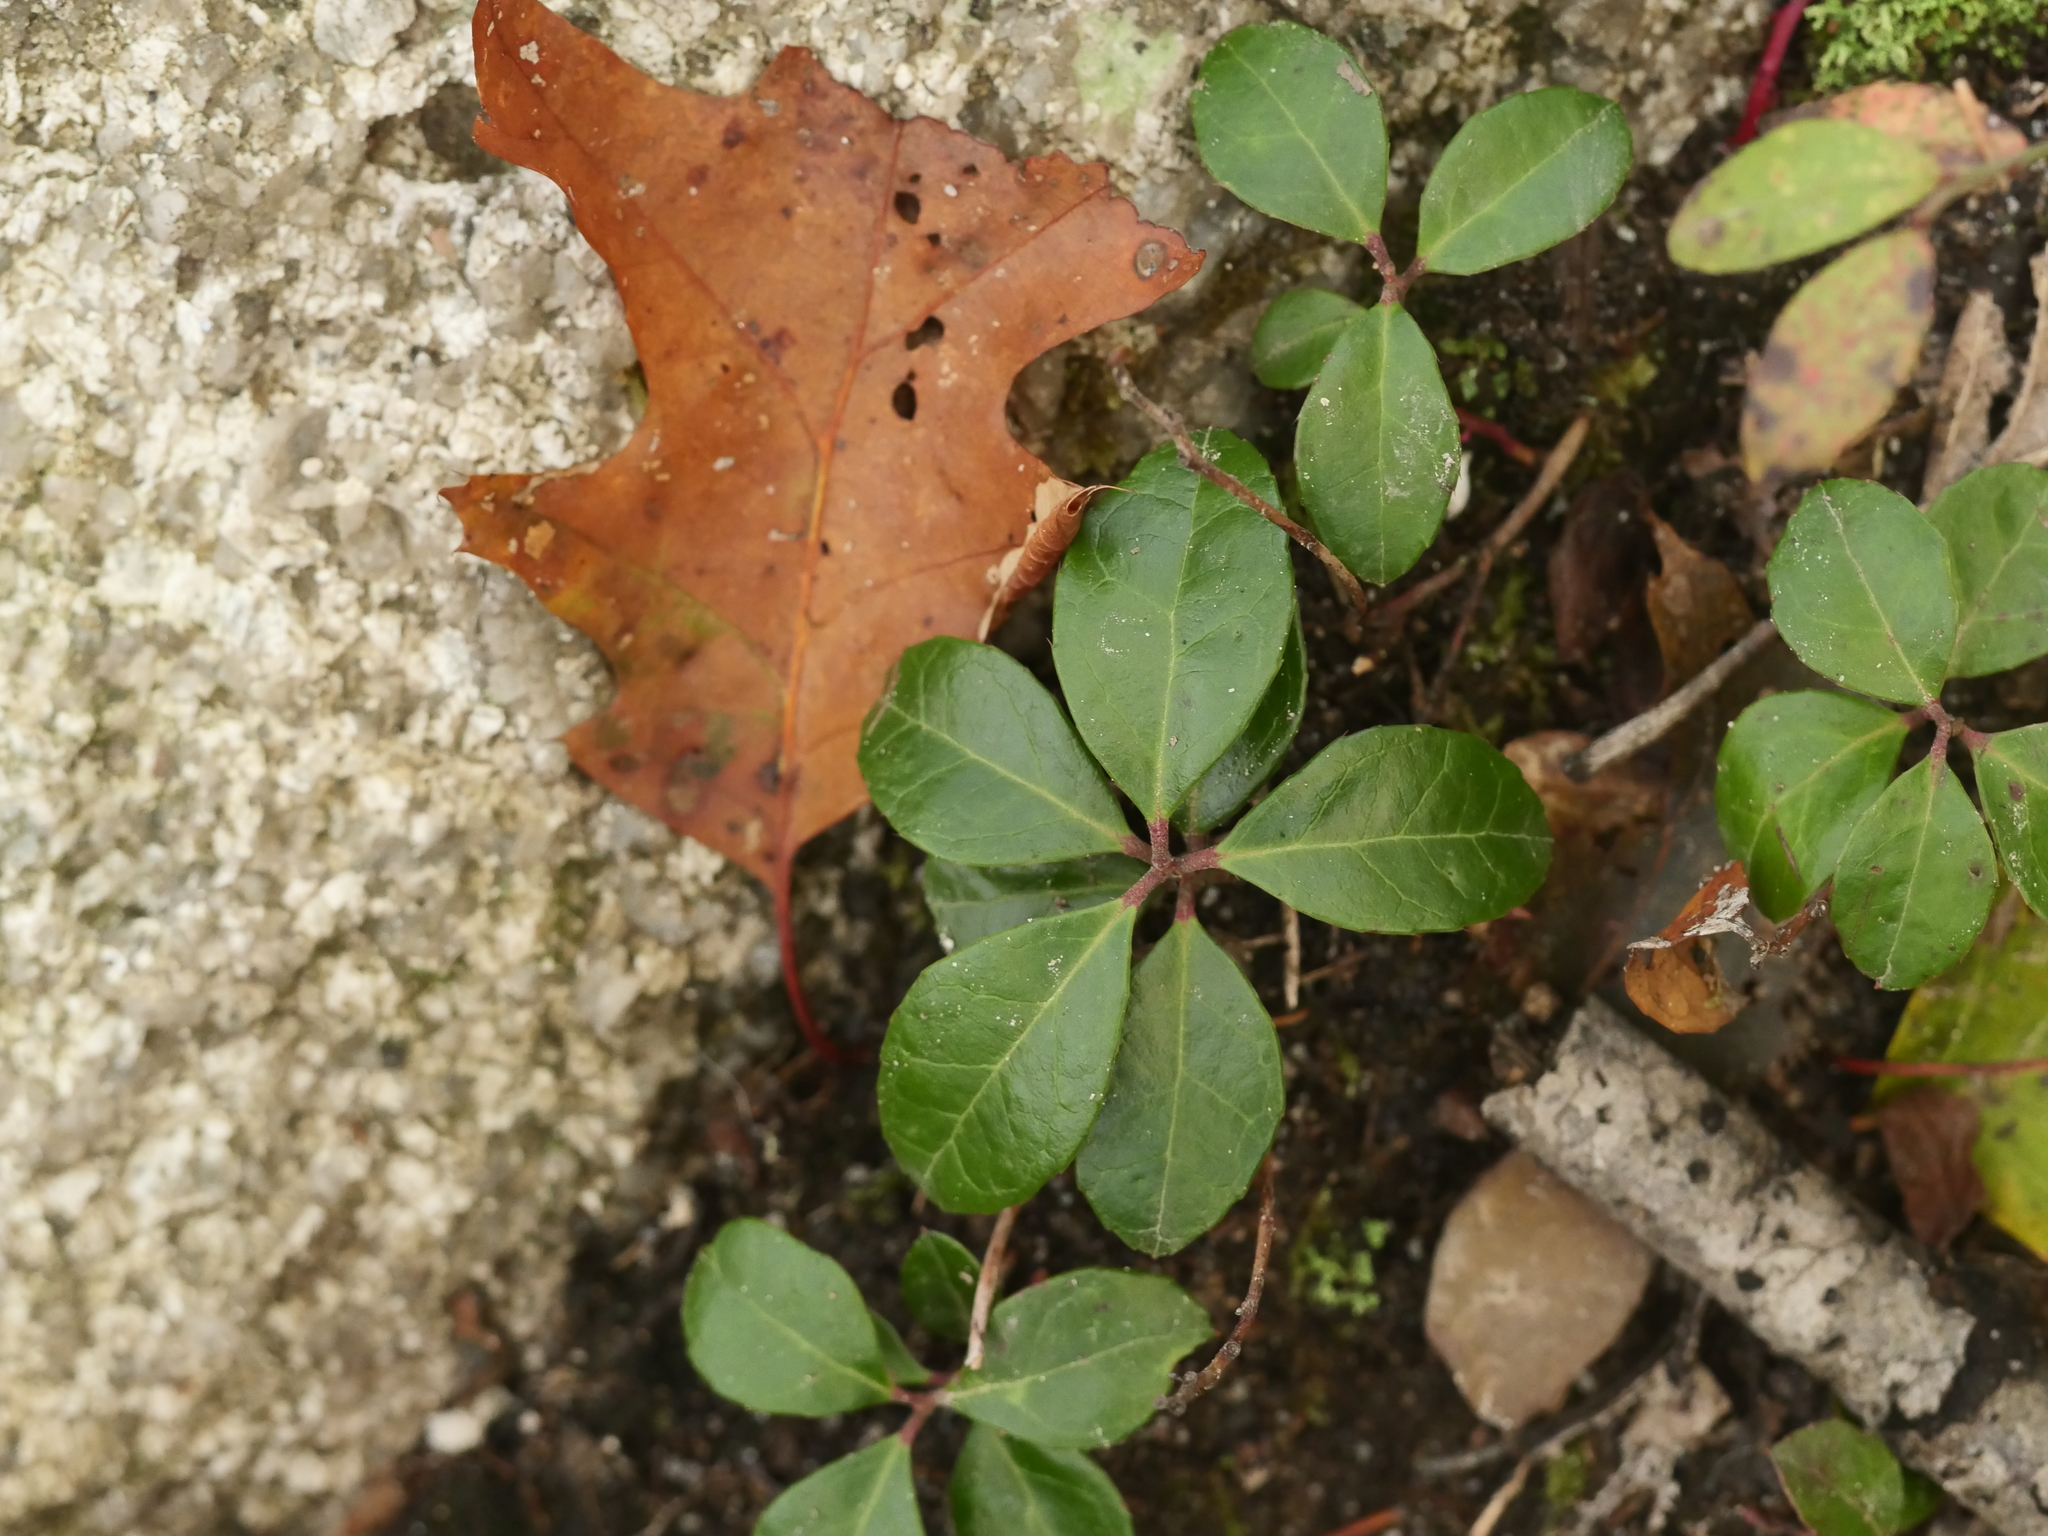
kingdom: Plantae
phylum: Tracheophyta
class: Magnoliopsida
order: Ericales
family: Ericaceae
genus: Gaultheria
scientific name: Gaultheria procumbens
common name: Checkerberry
